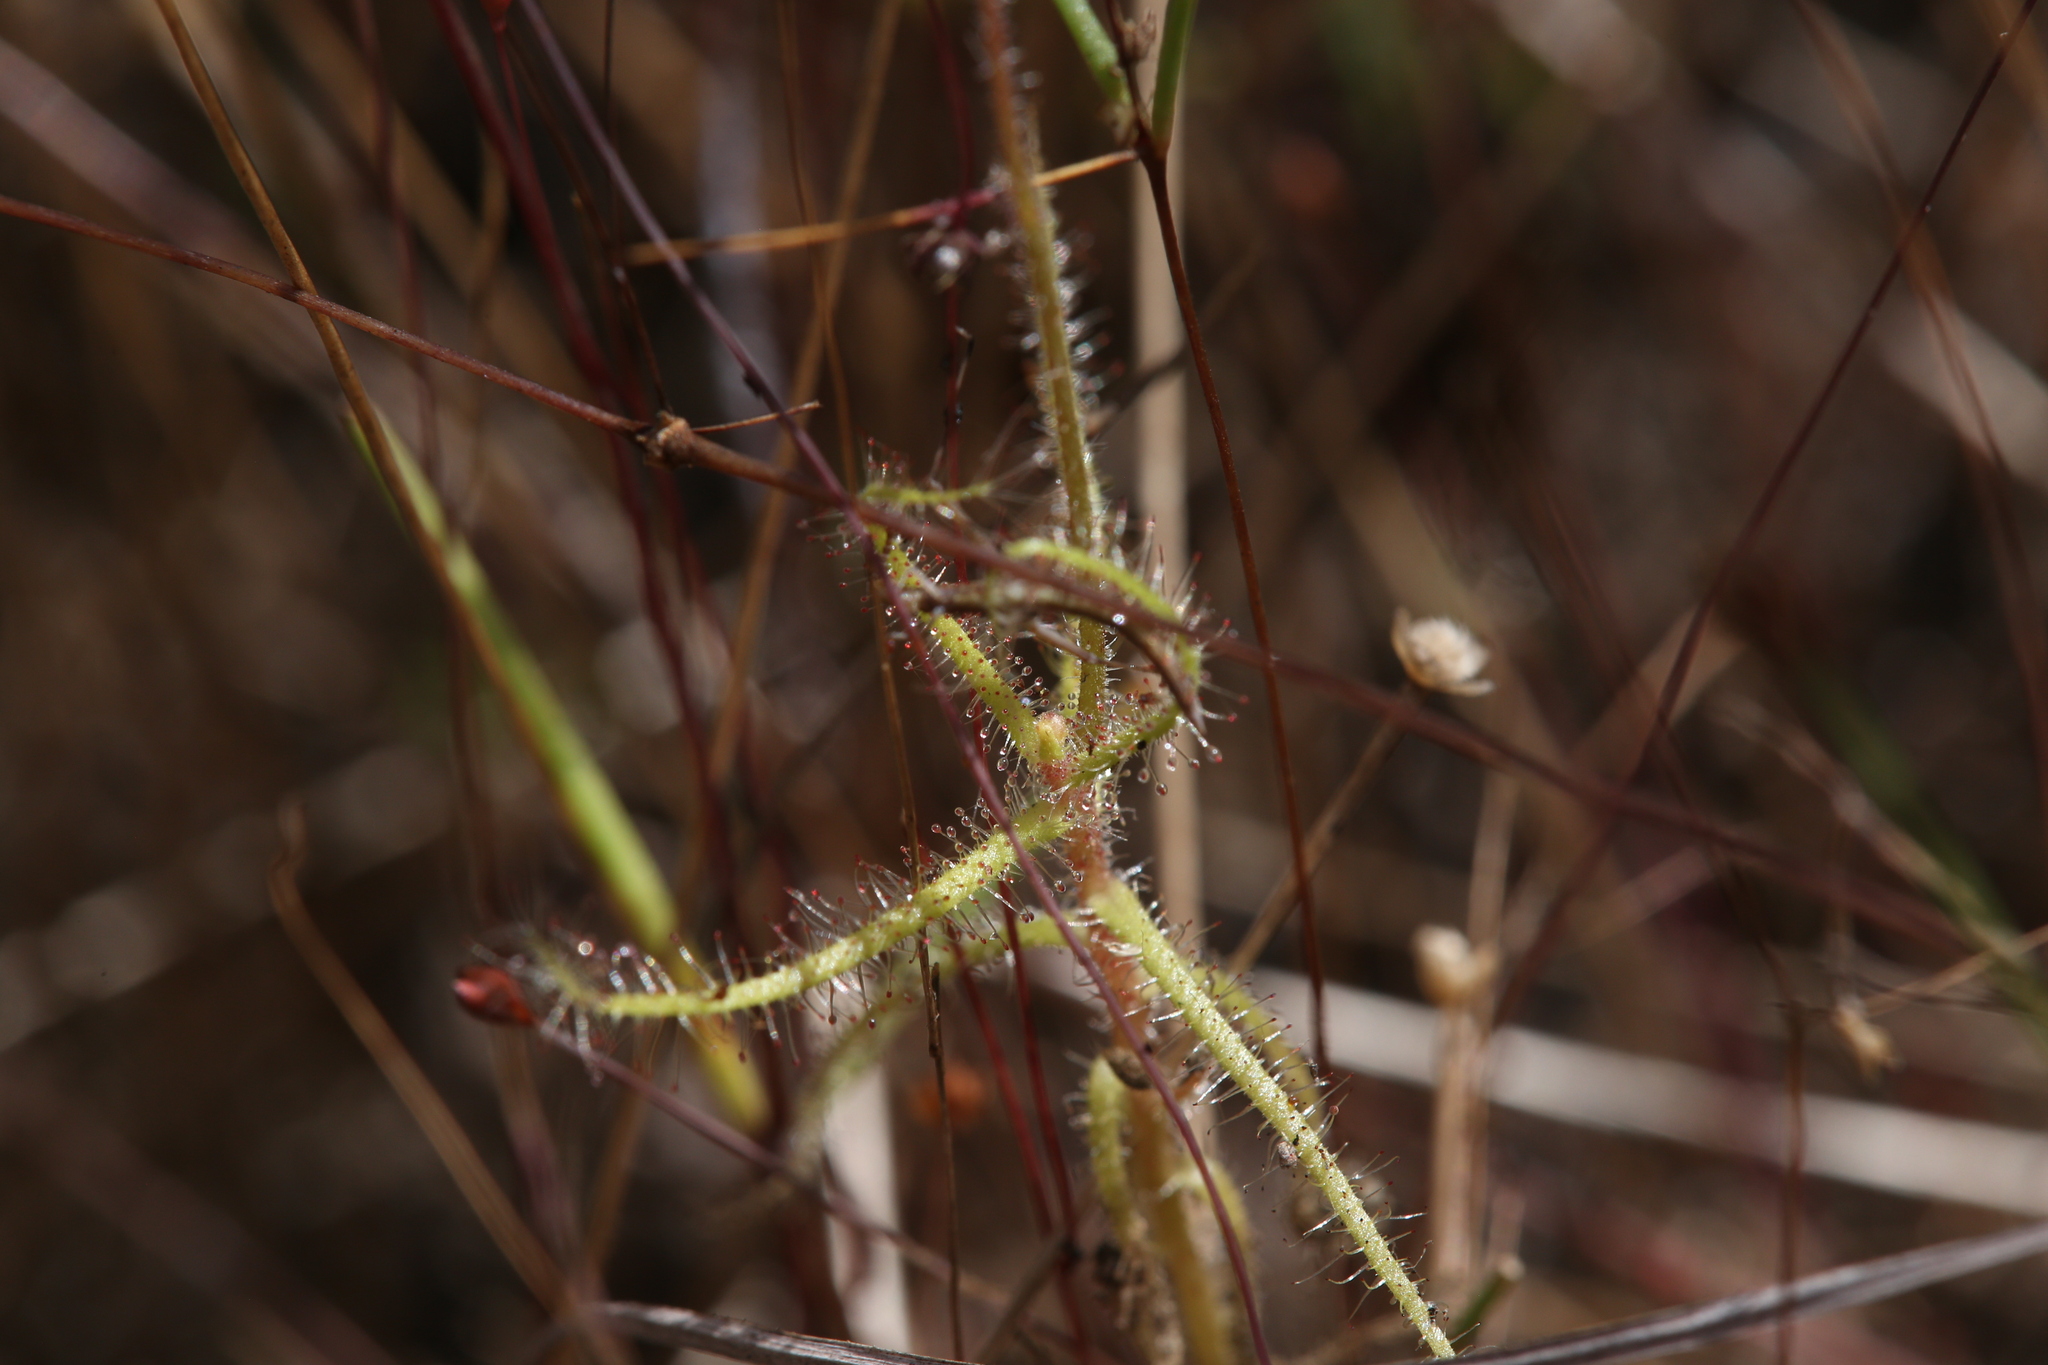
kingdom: Plantae
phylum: Tracheophyta
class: Magnoliopsida
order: Caryophyllales
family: Droseraceae
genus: Drosera
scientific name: Drosera aquatica
